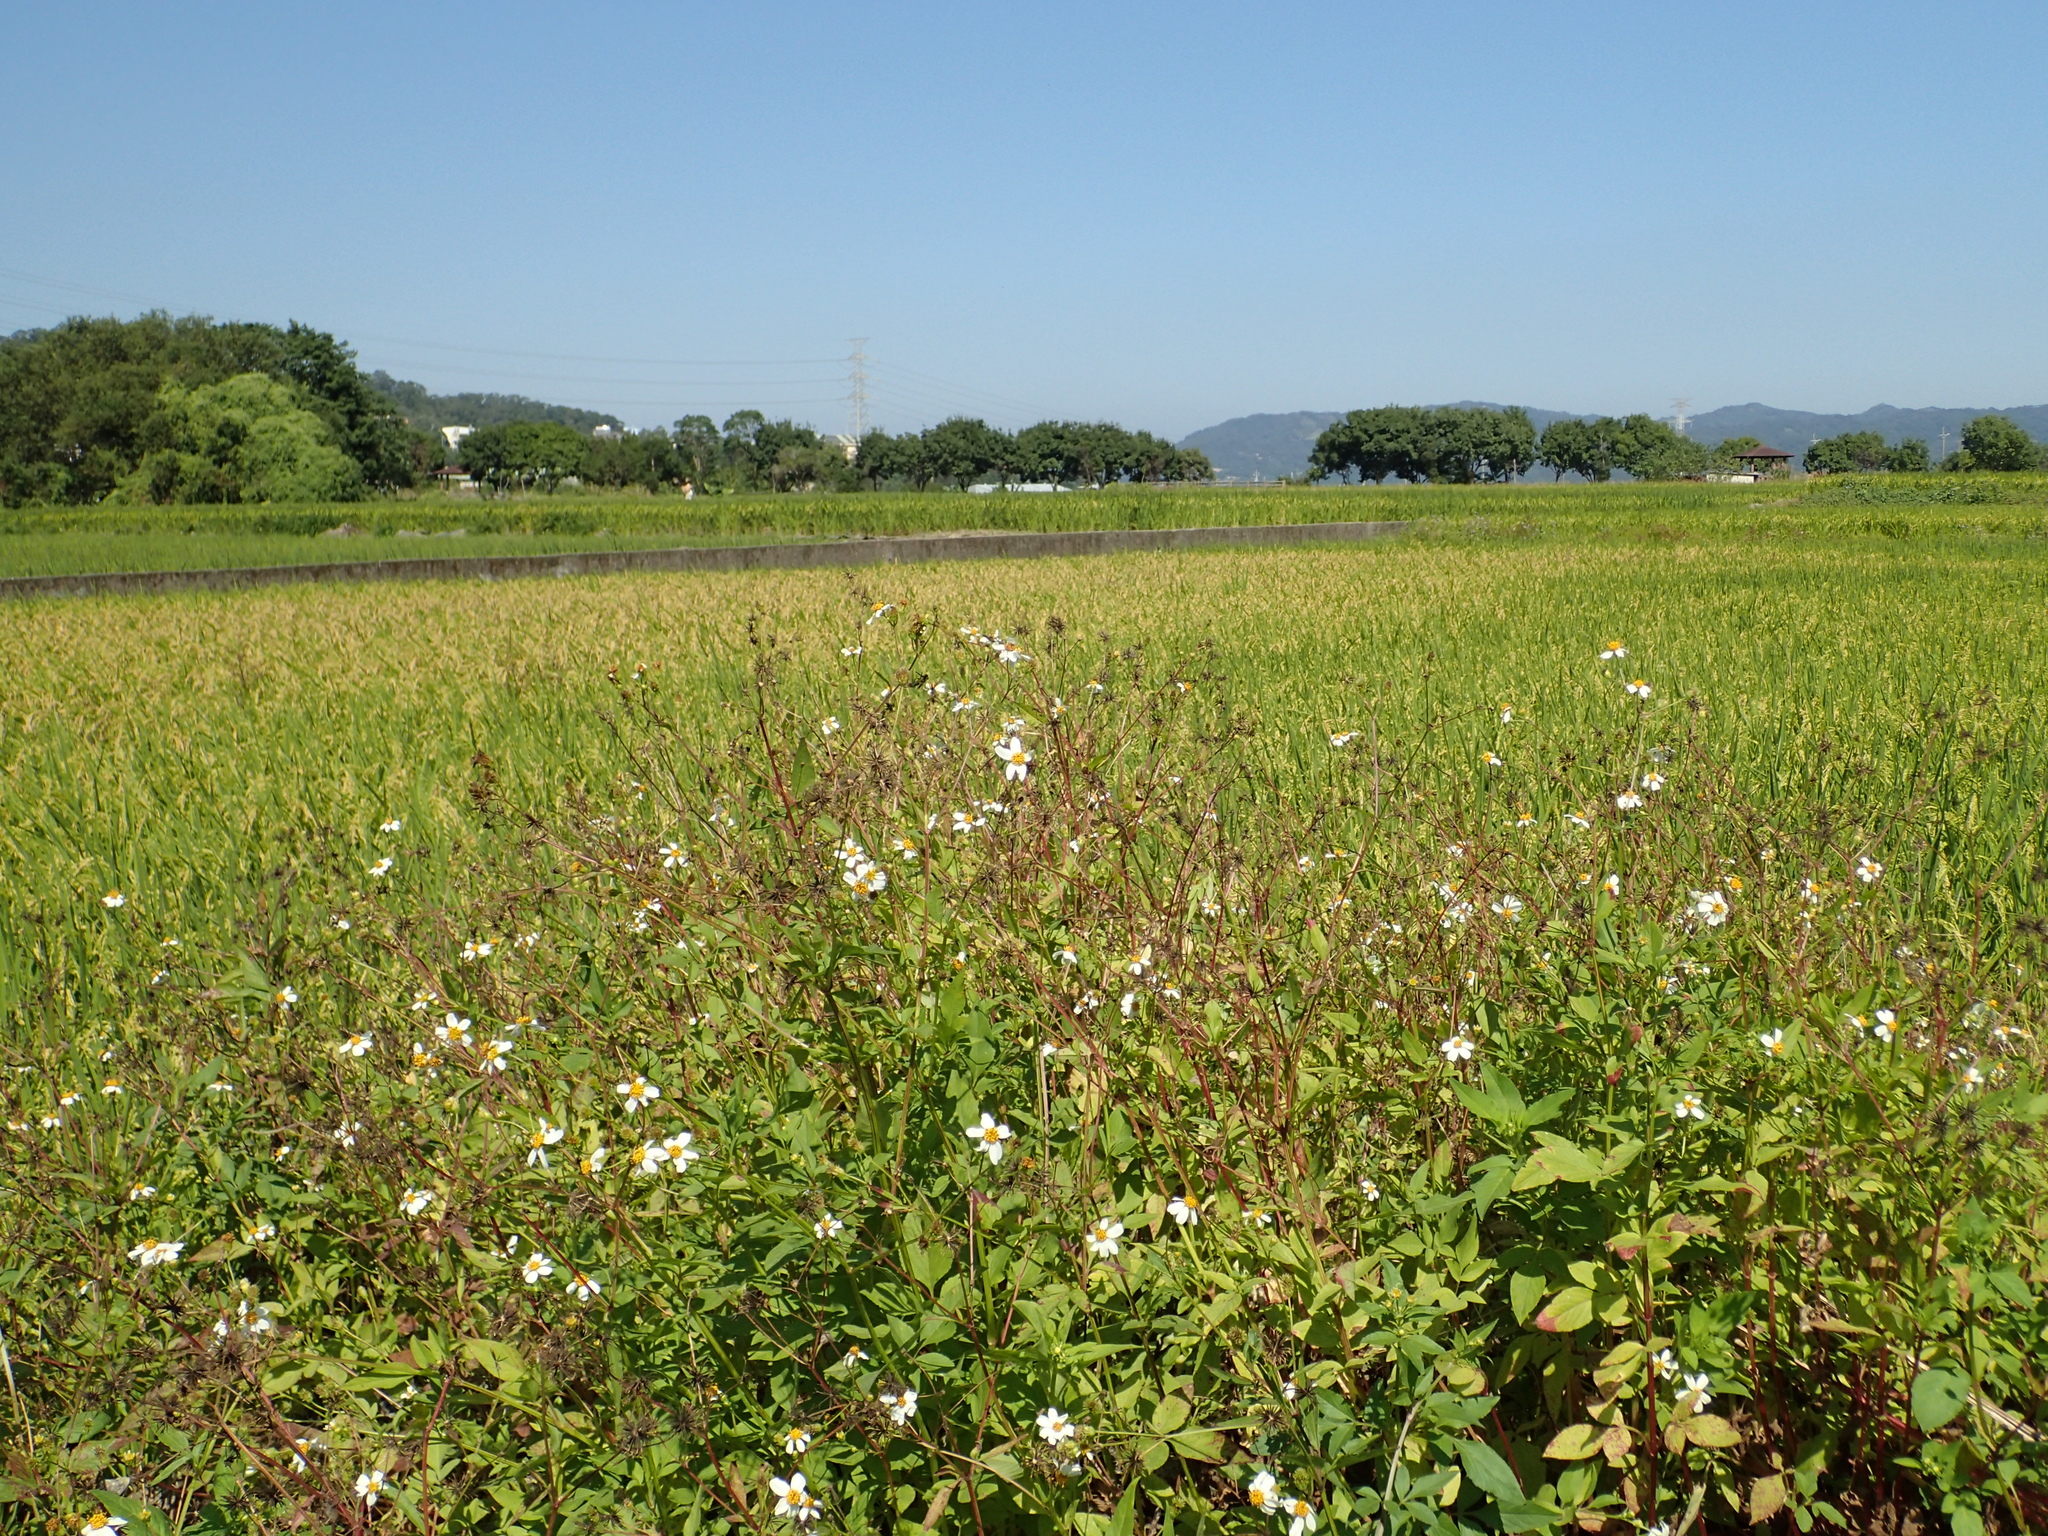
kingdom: Plantae
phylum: Tracheophyta
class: Magnoliopsida
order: Asterales
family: Asteraceae
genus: Bidens
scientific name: Bidens alba
